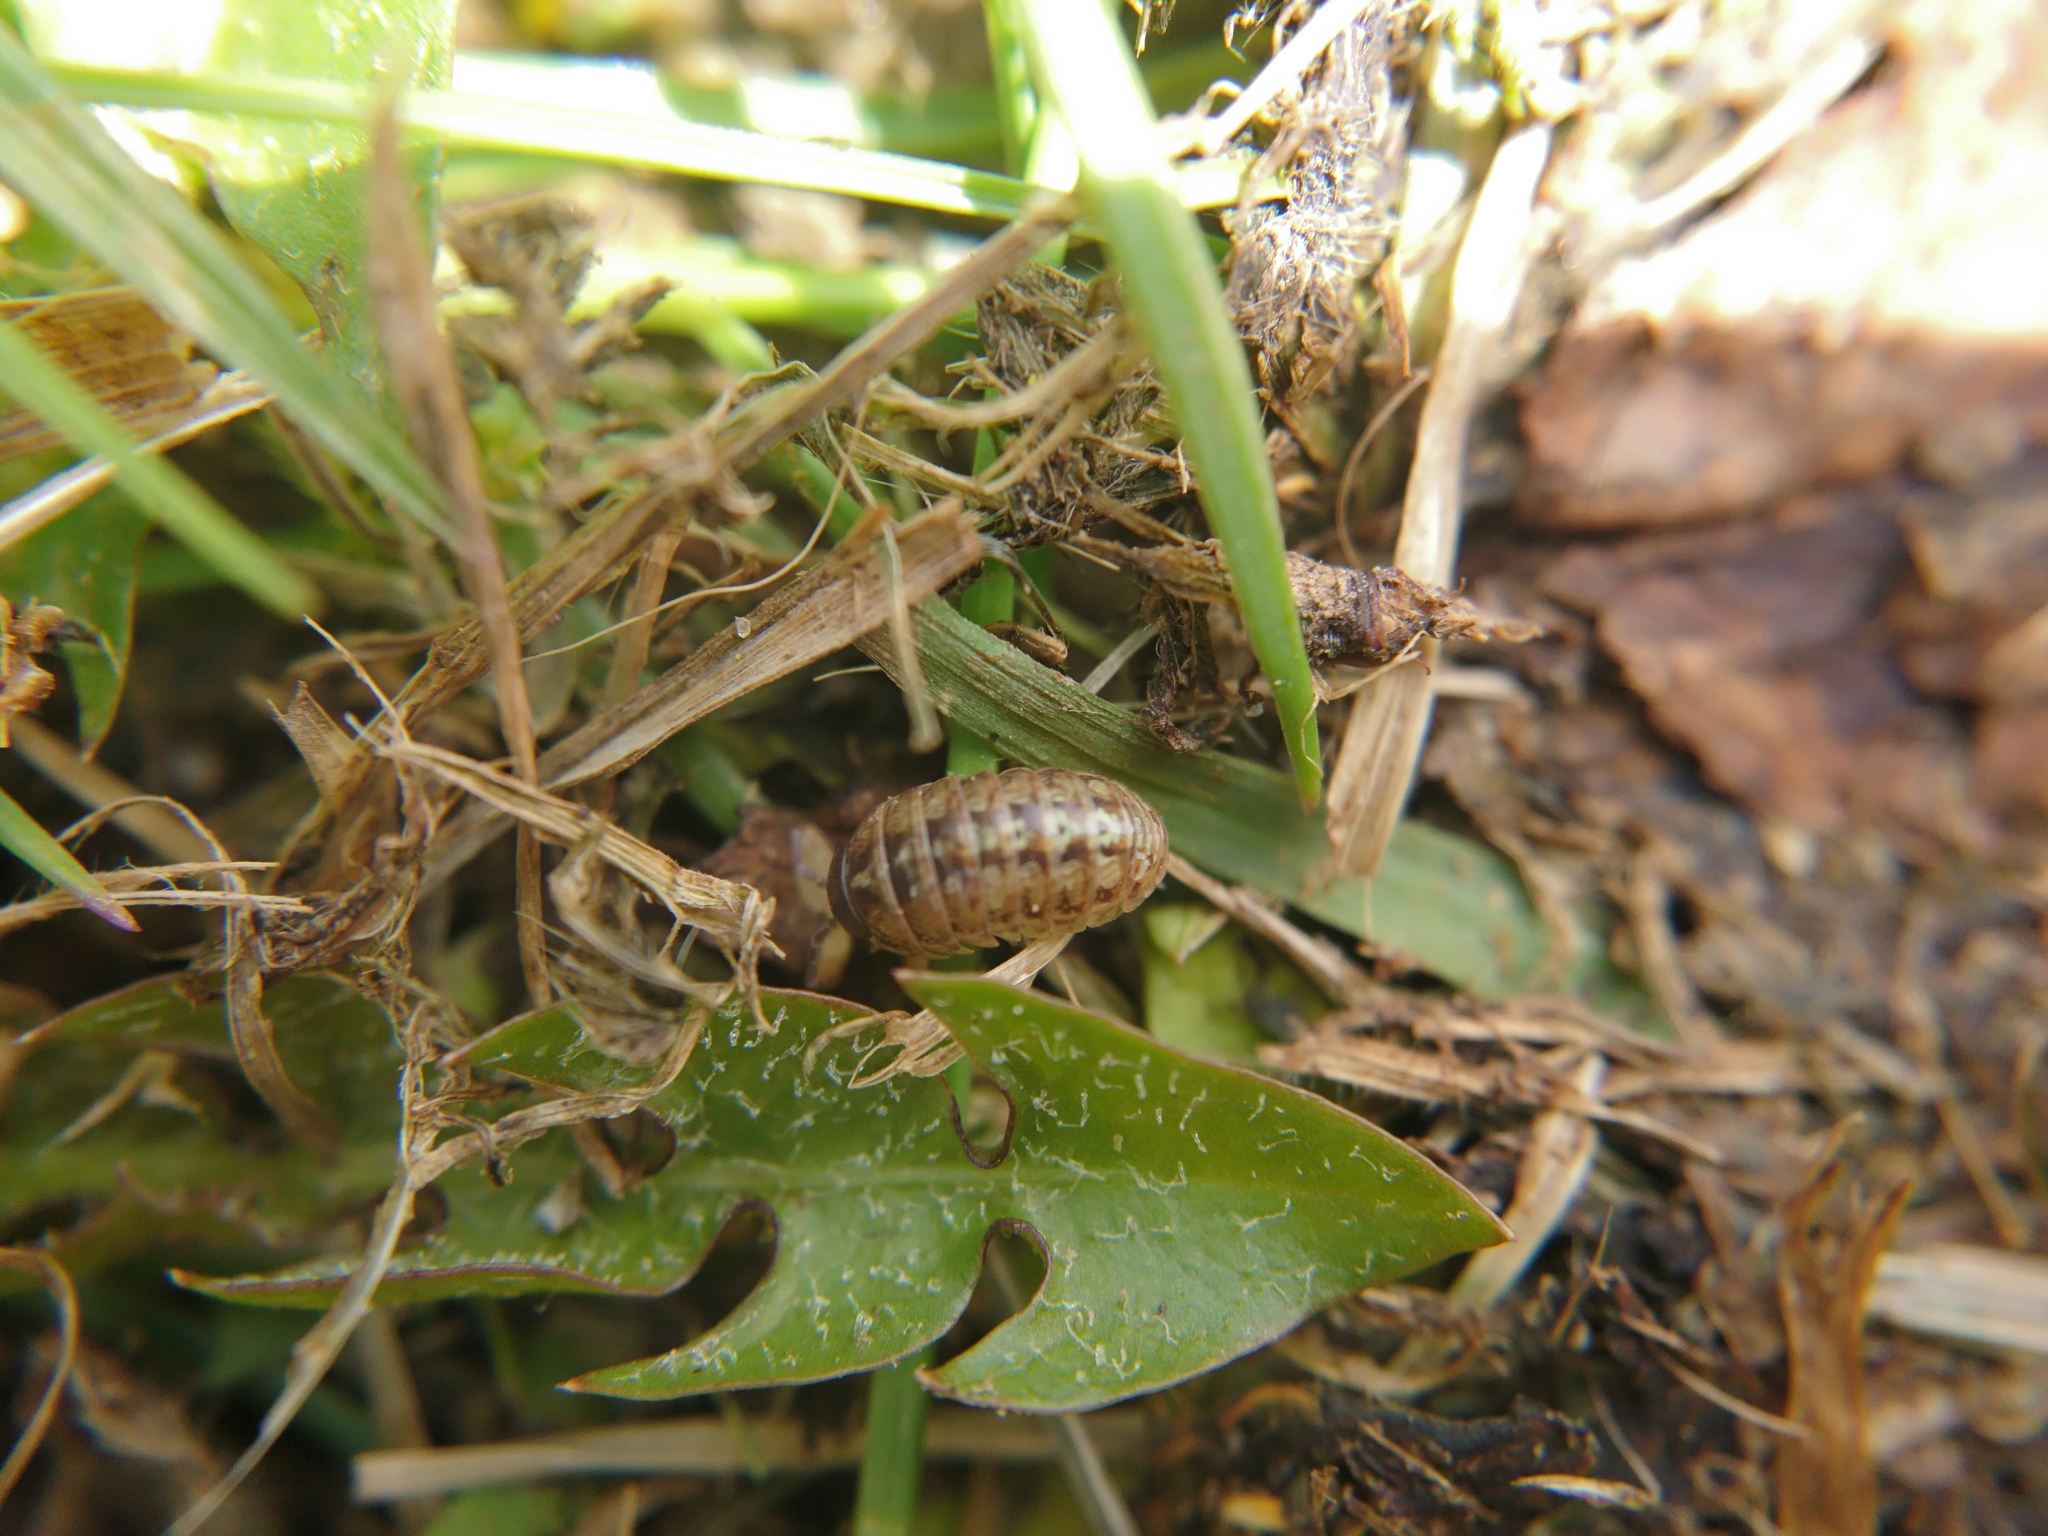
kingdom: Animalia
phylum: Arthropoda
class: Malacostraca
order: Isopoda
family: Armadillidiidae
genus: Armadillidium
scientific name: Armadillidium vulgare
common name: Common pill woodlouse
